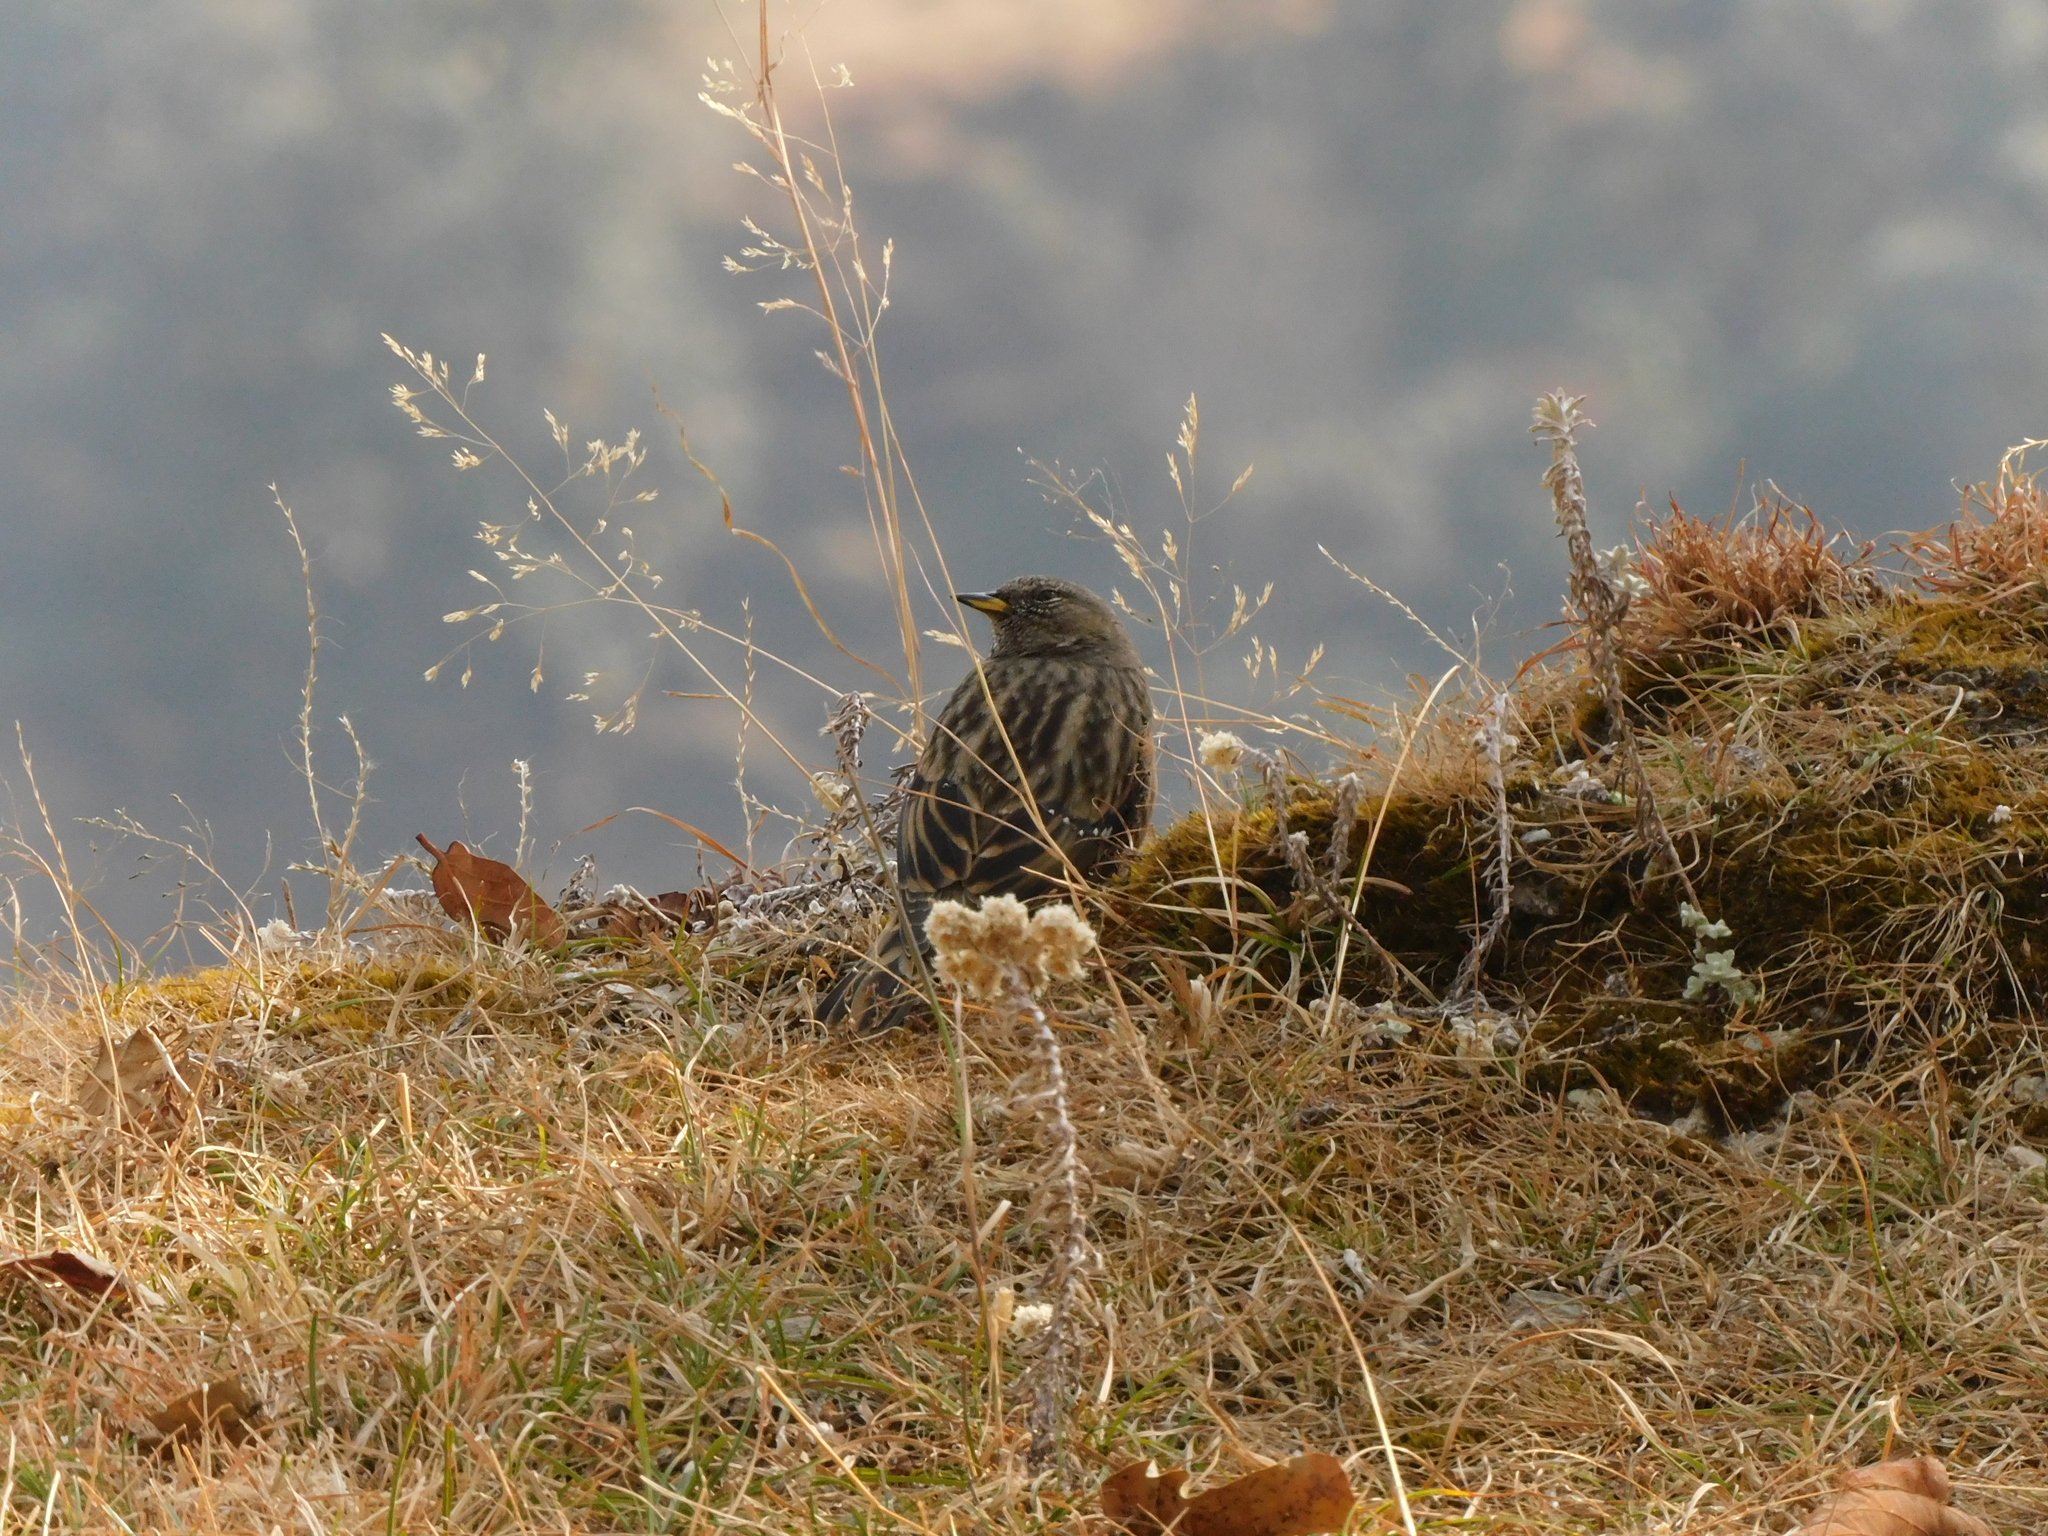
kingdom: Animalia
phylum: Chordata
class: Aves
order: Passeriformes
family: Prunellidae
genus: Prunella
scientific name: Prunella collaris
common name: Alpine accentor
